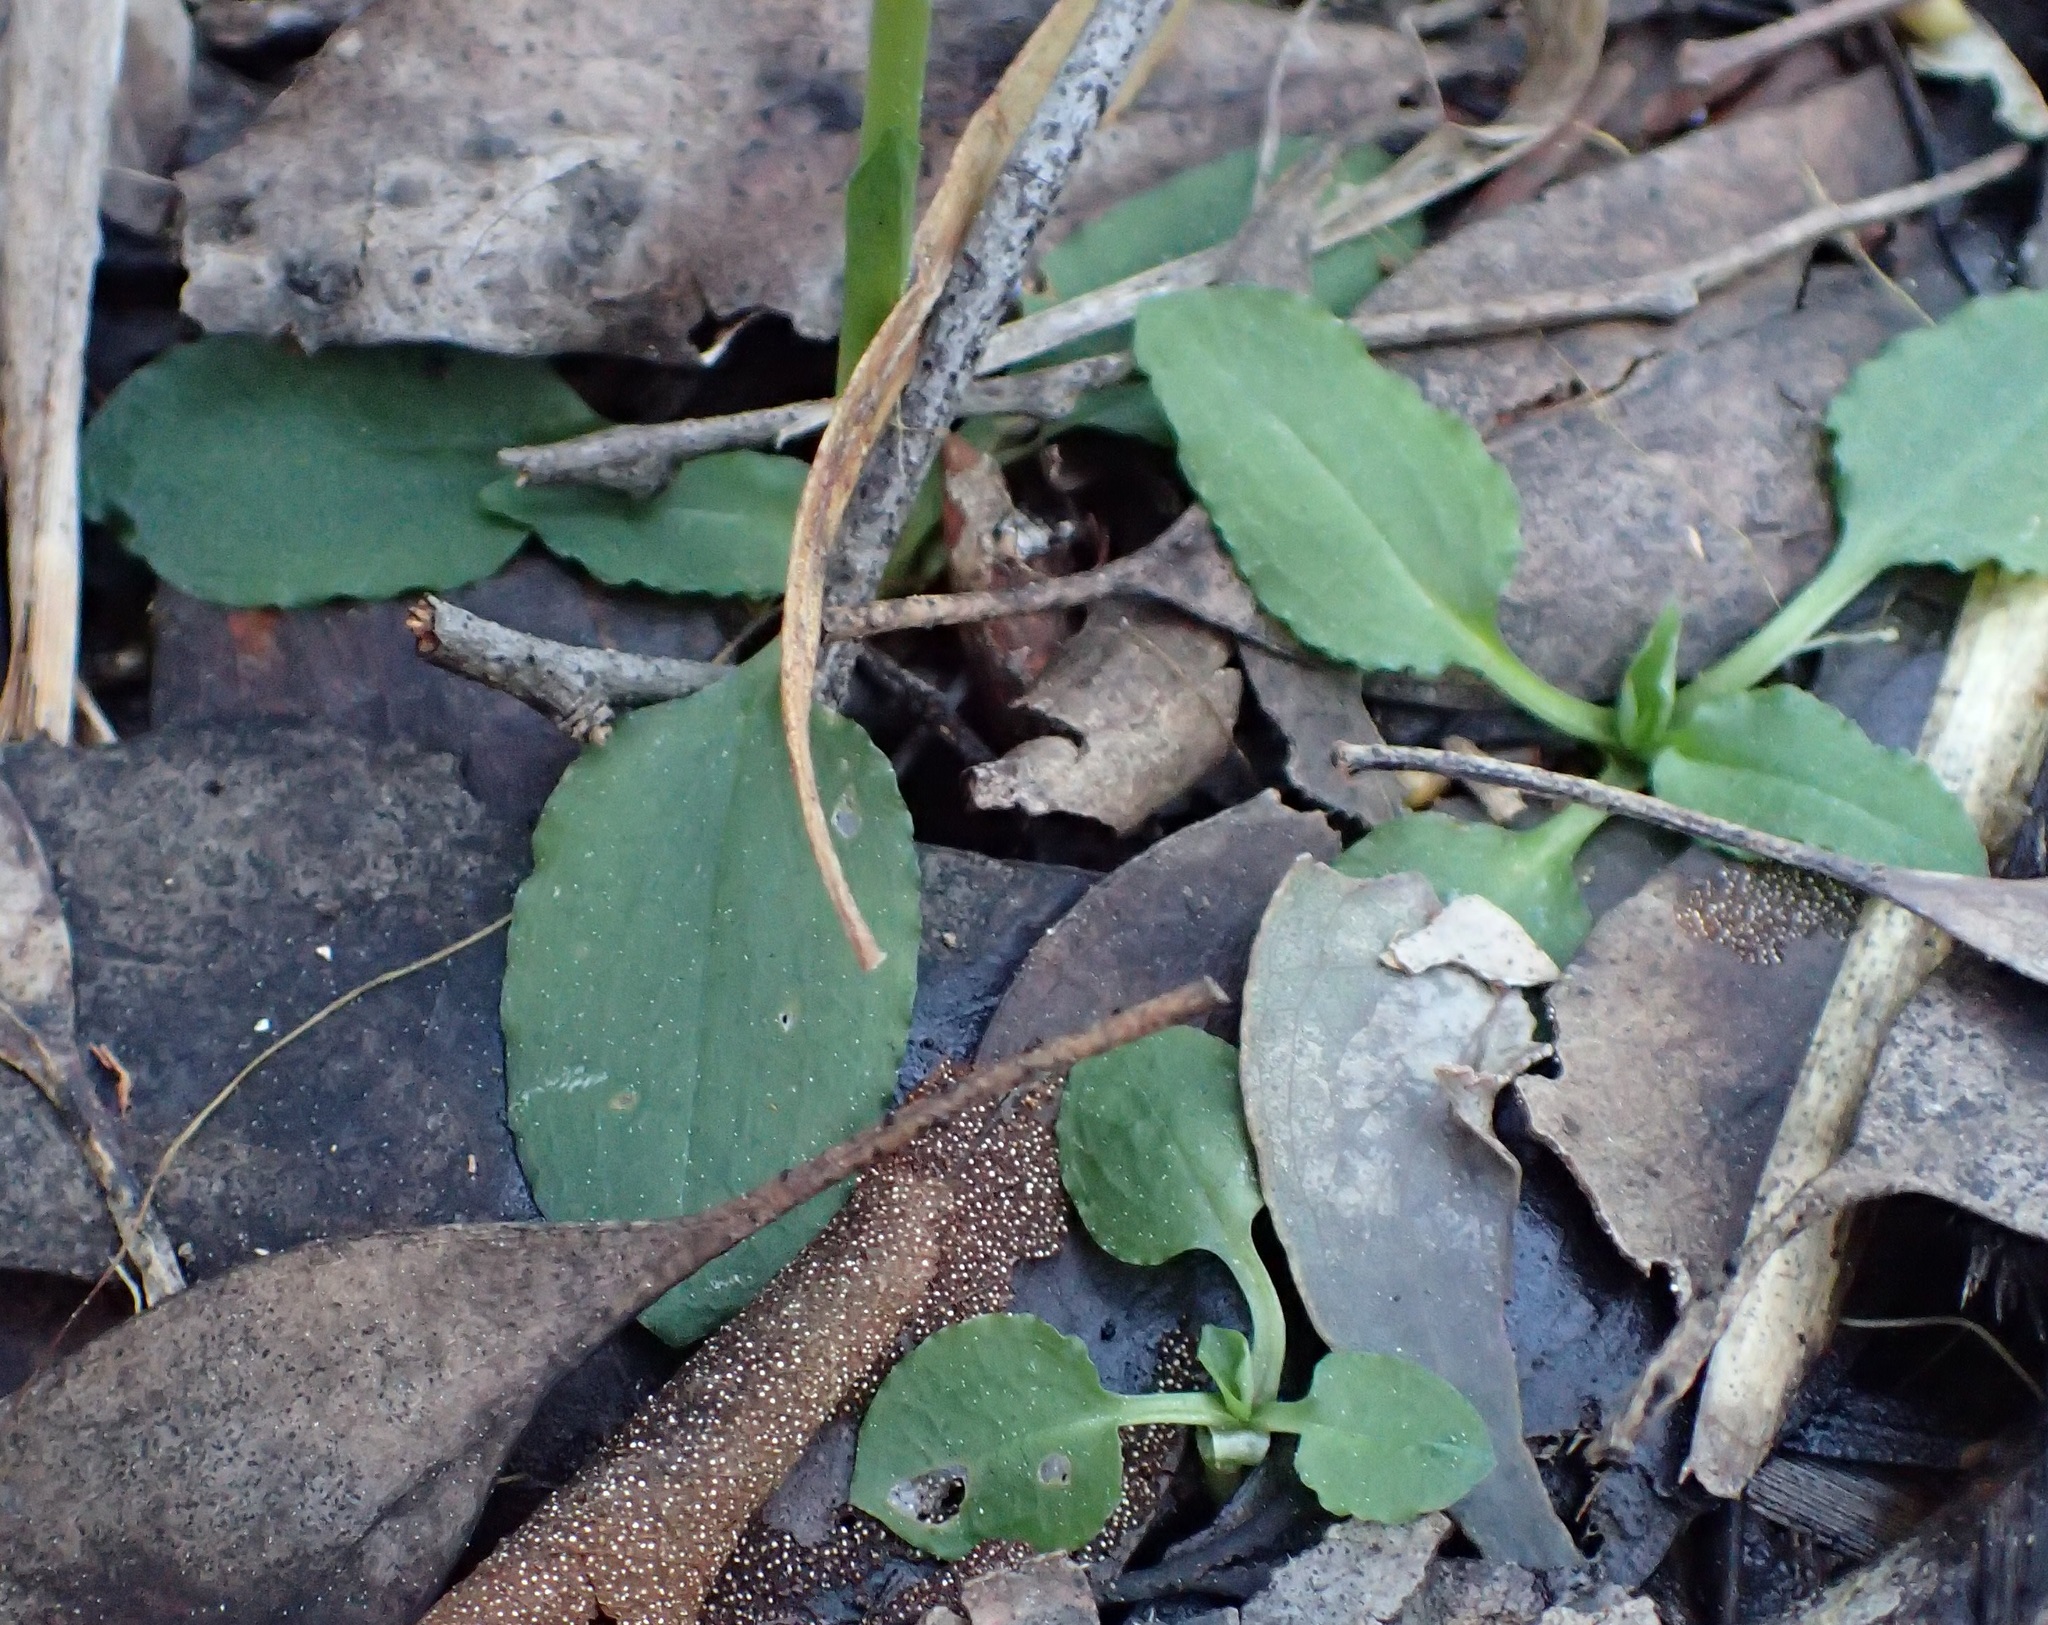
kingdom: Plantae
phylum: Tracheophyta
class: Liliopsida
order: Asparagales
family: Orchidaceae
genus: Pterostylis
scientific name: Pterostylis nutans
